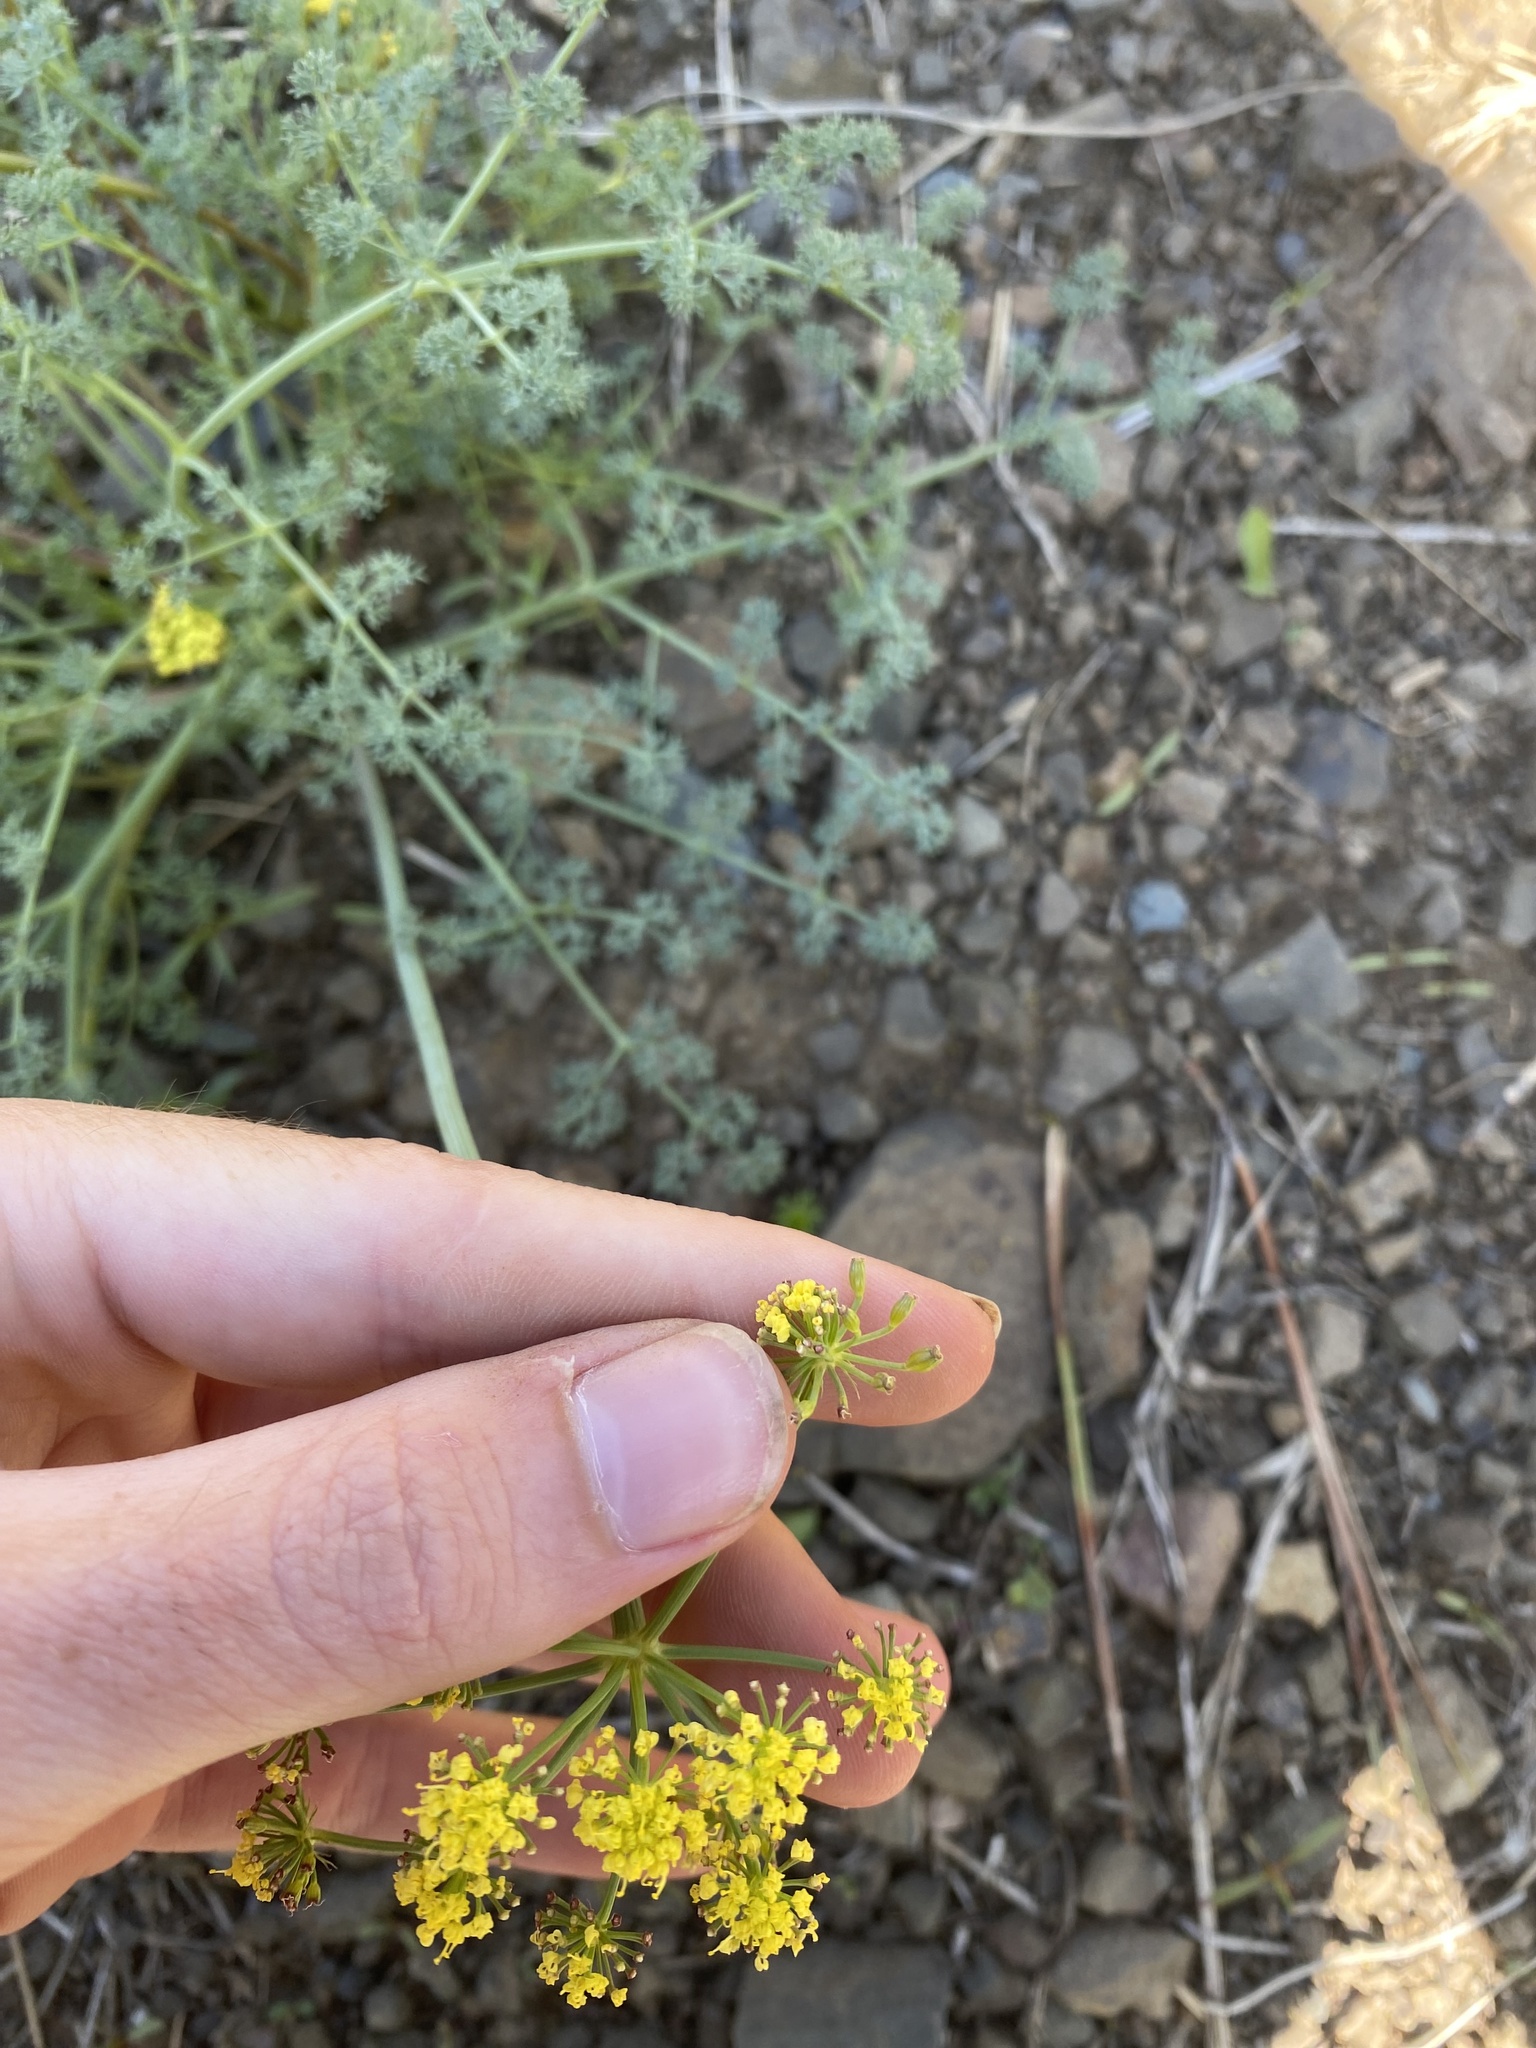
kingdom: Plantae
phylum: Tracheophyta
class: Magnoliopsida
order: Apiales
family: Apiaceae
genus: Lomatium
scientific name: Lomatium papilioniferum
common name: Butterfly lomatium
